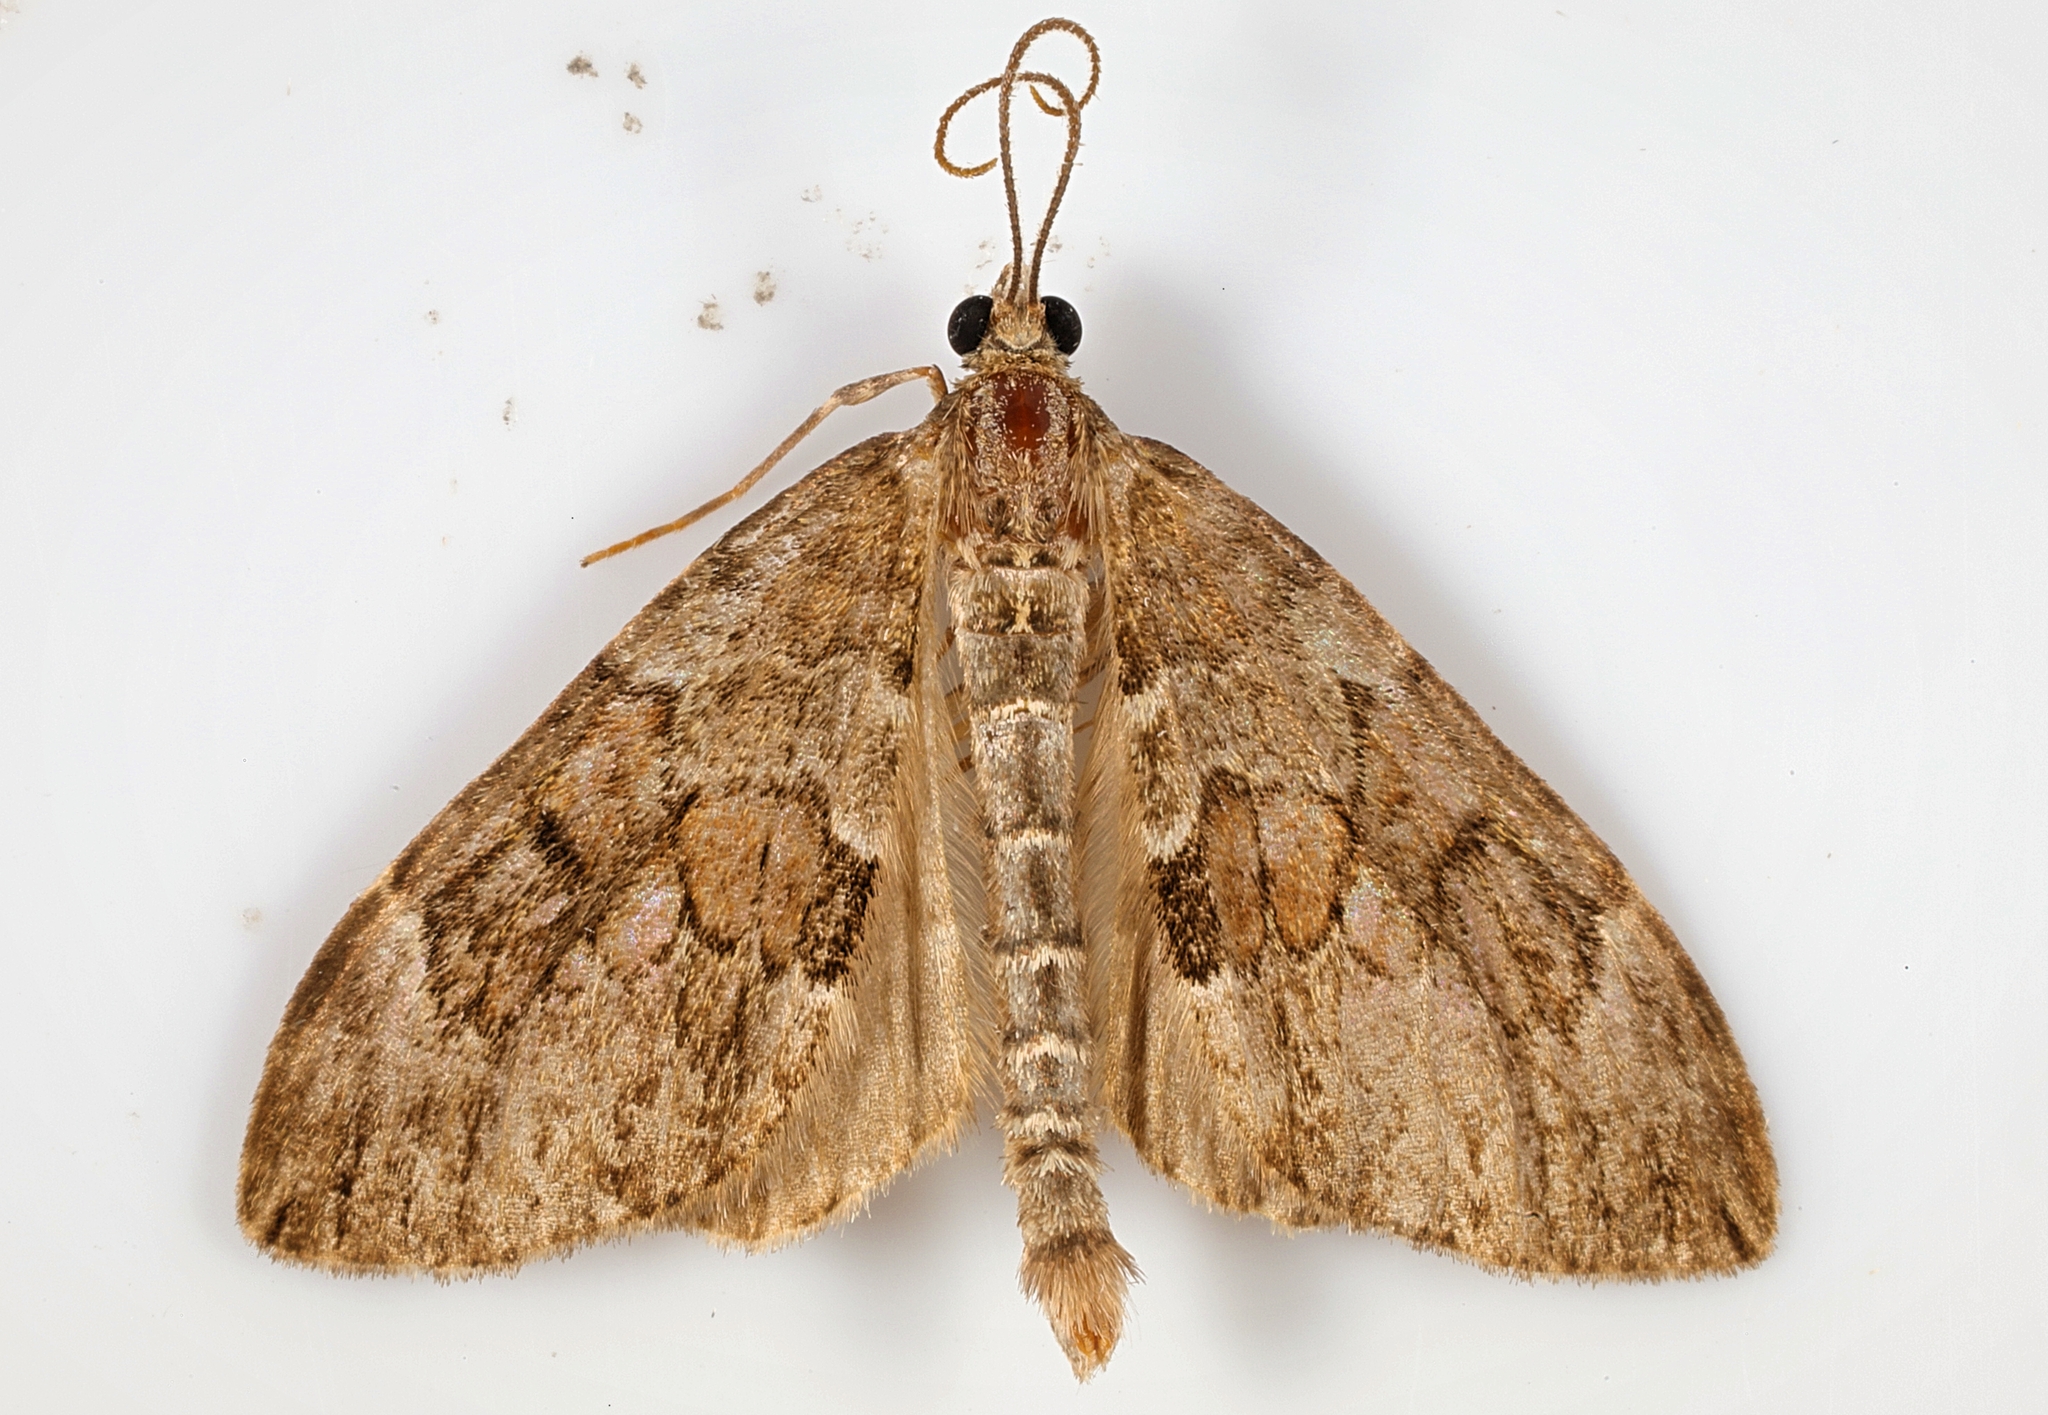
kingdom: Animalia
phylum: Arthropoda
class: Insecta
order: Lepidoptera
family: Geometridae
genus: Thera
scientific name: Thera obeliscata
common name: Grey pine carpet
